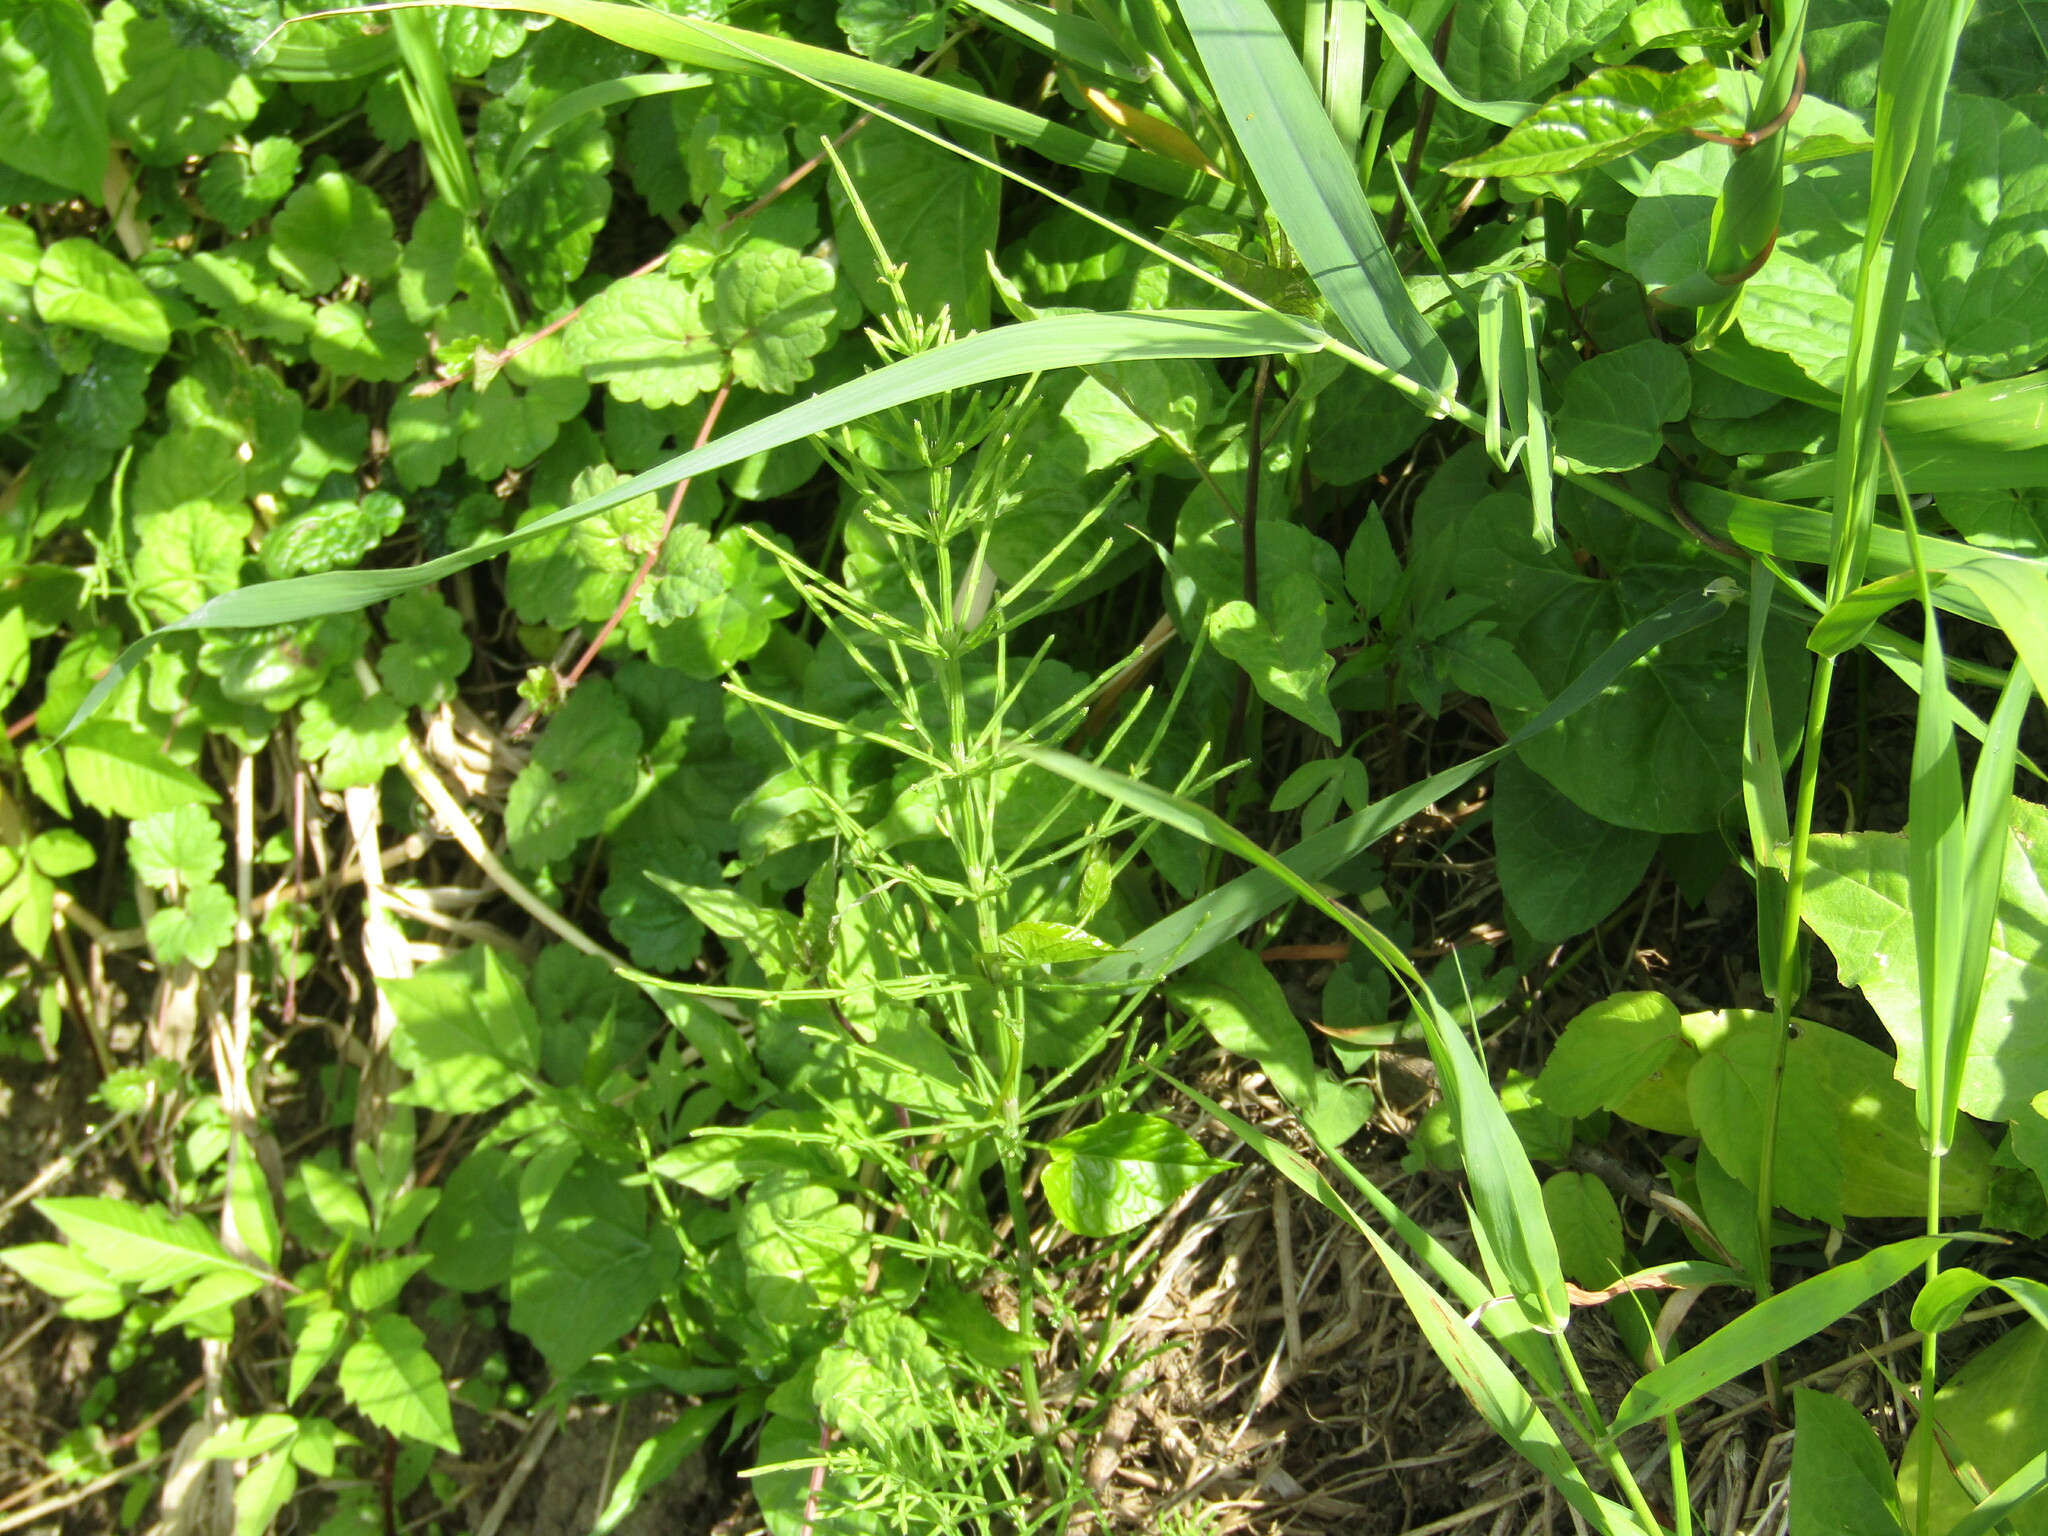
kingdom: Plantae
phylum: Tracheophyta
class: Polypodiopsida
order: Equisetales
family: Equisetaceae
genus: Equisetum
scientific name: Equisetum arvense
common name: Field horsetail
